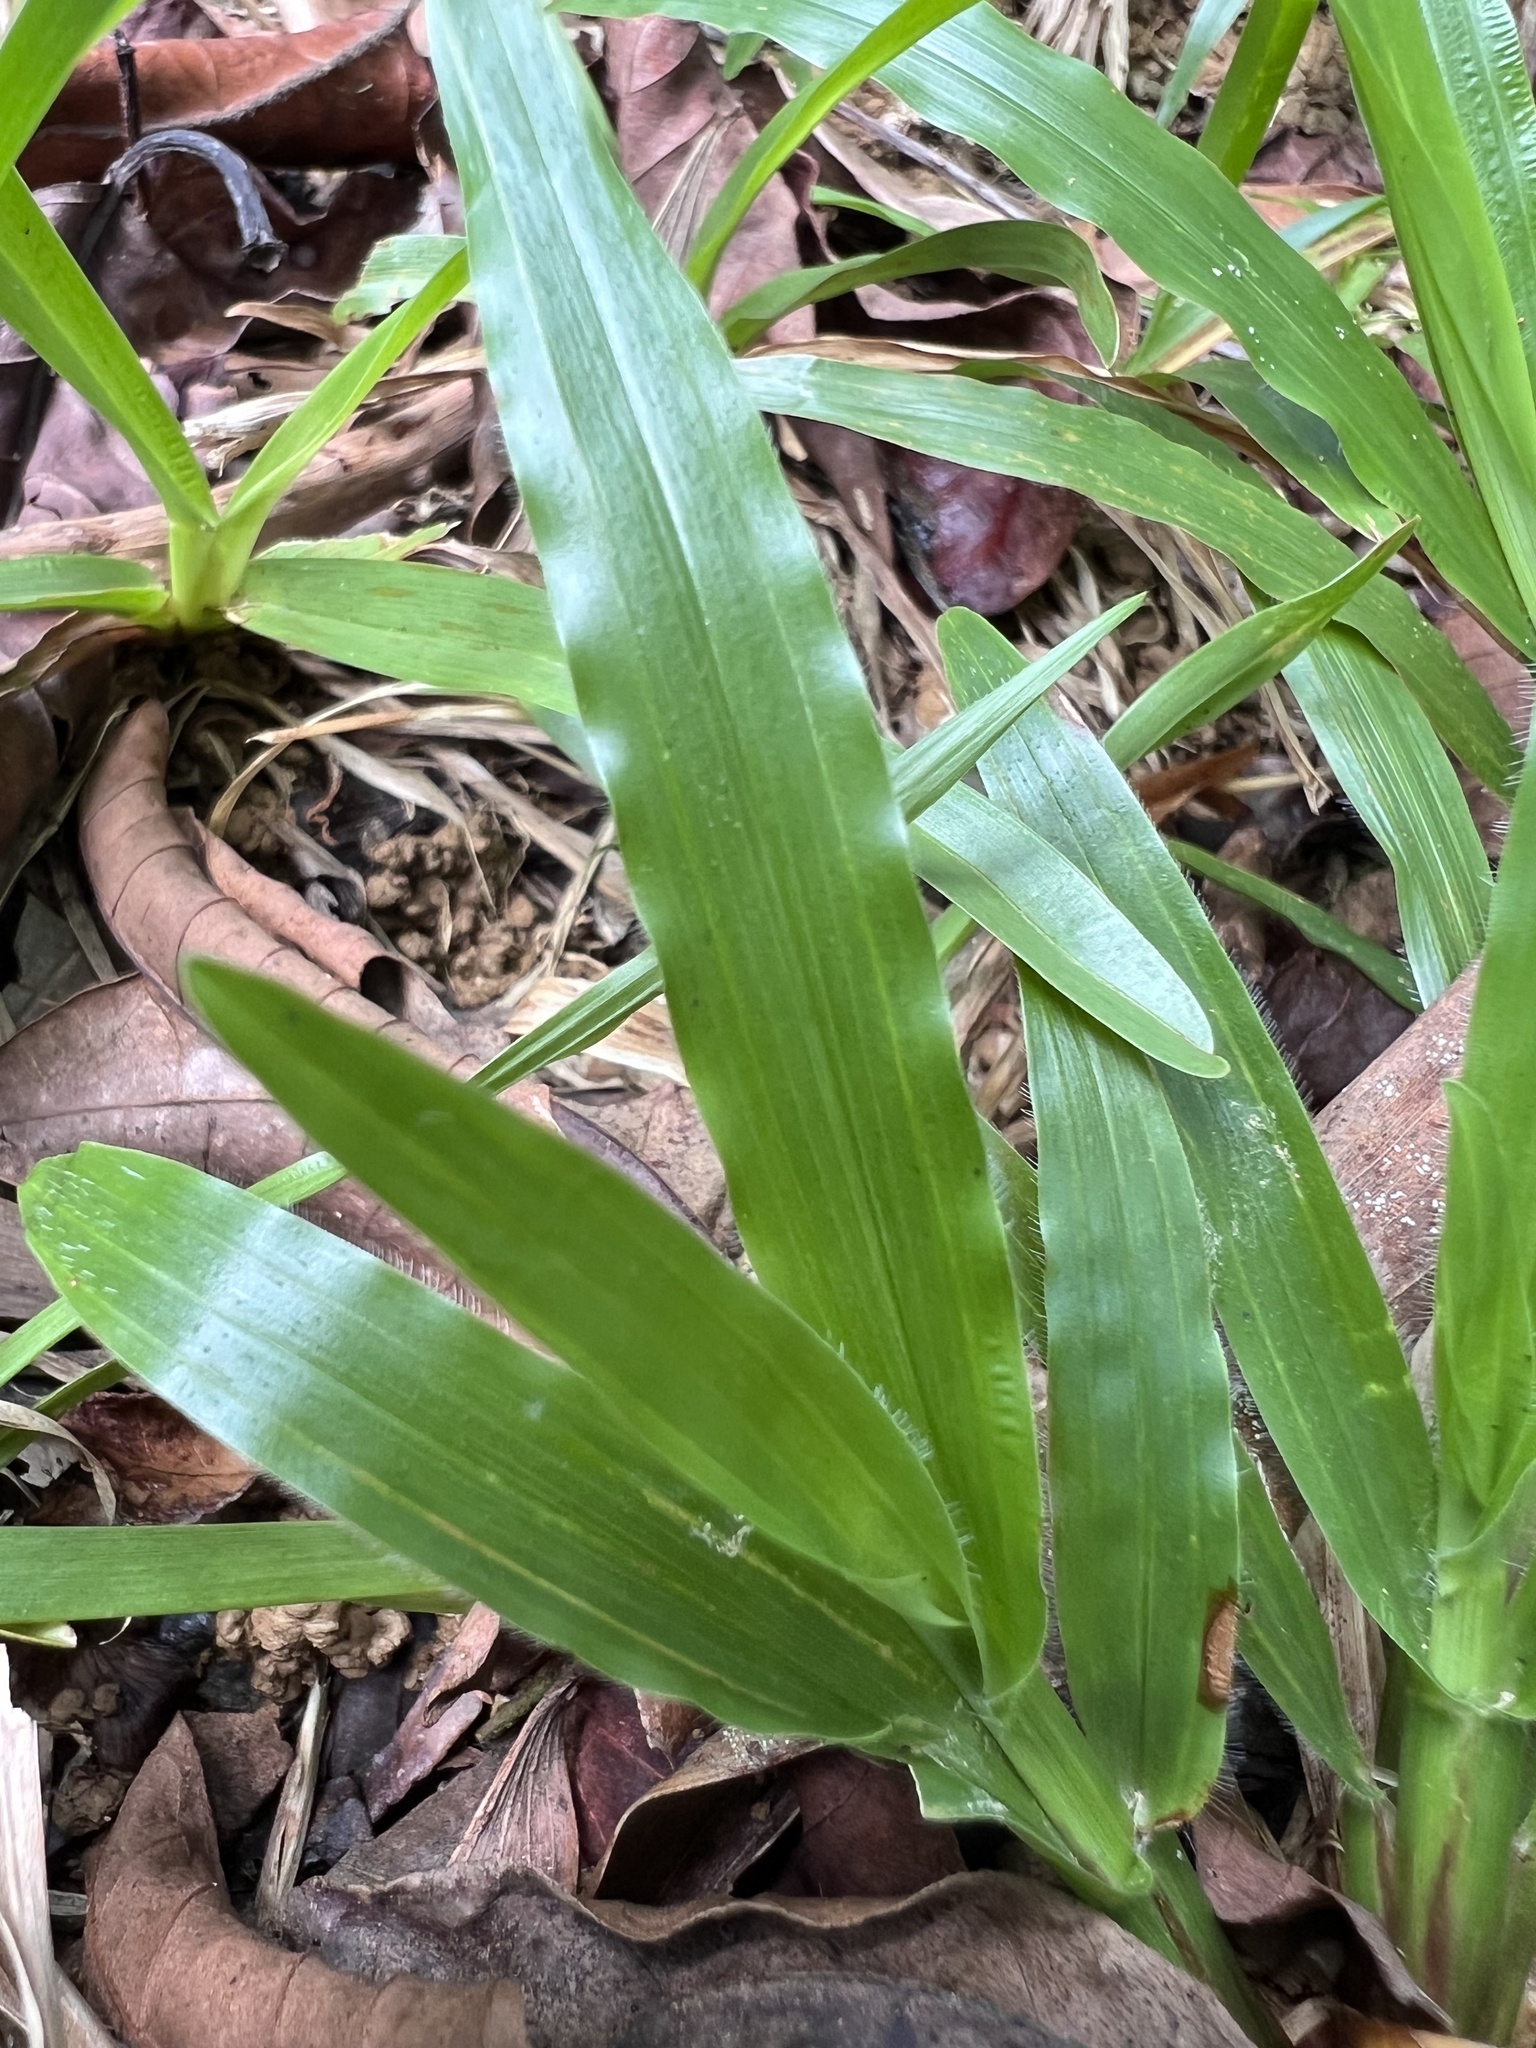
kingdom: Plantae
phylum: Tracheophyta
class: Liliopsida
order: Poales
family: Poaceae
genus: Axonopus
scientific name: Axonopus compressus
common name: American carpet grass
